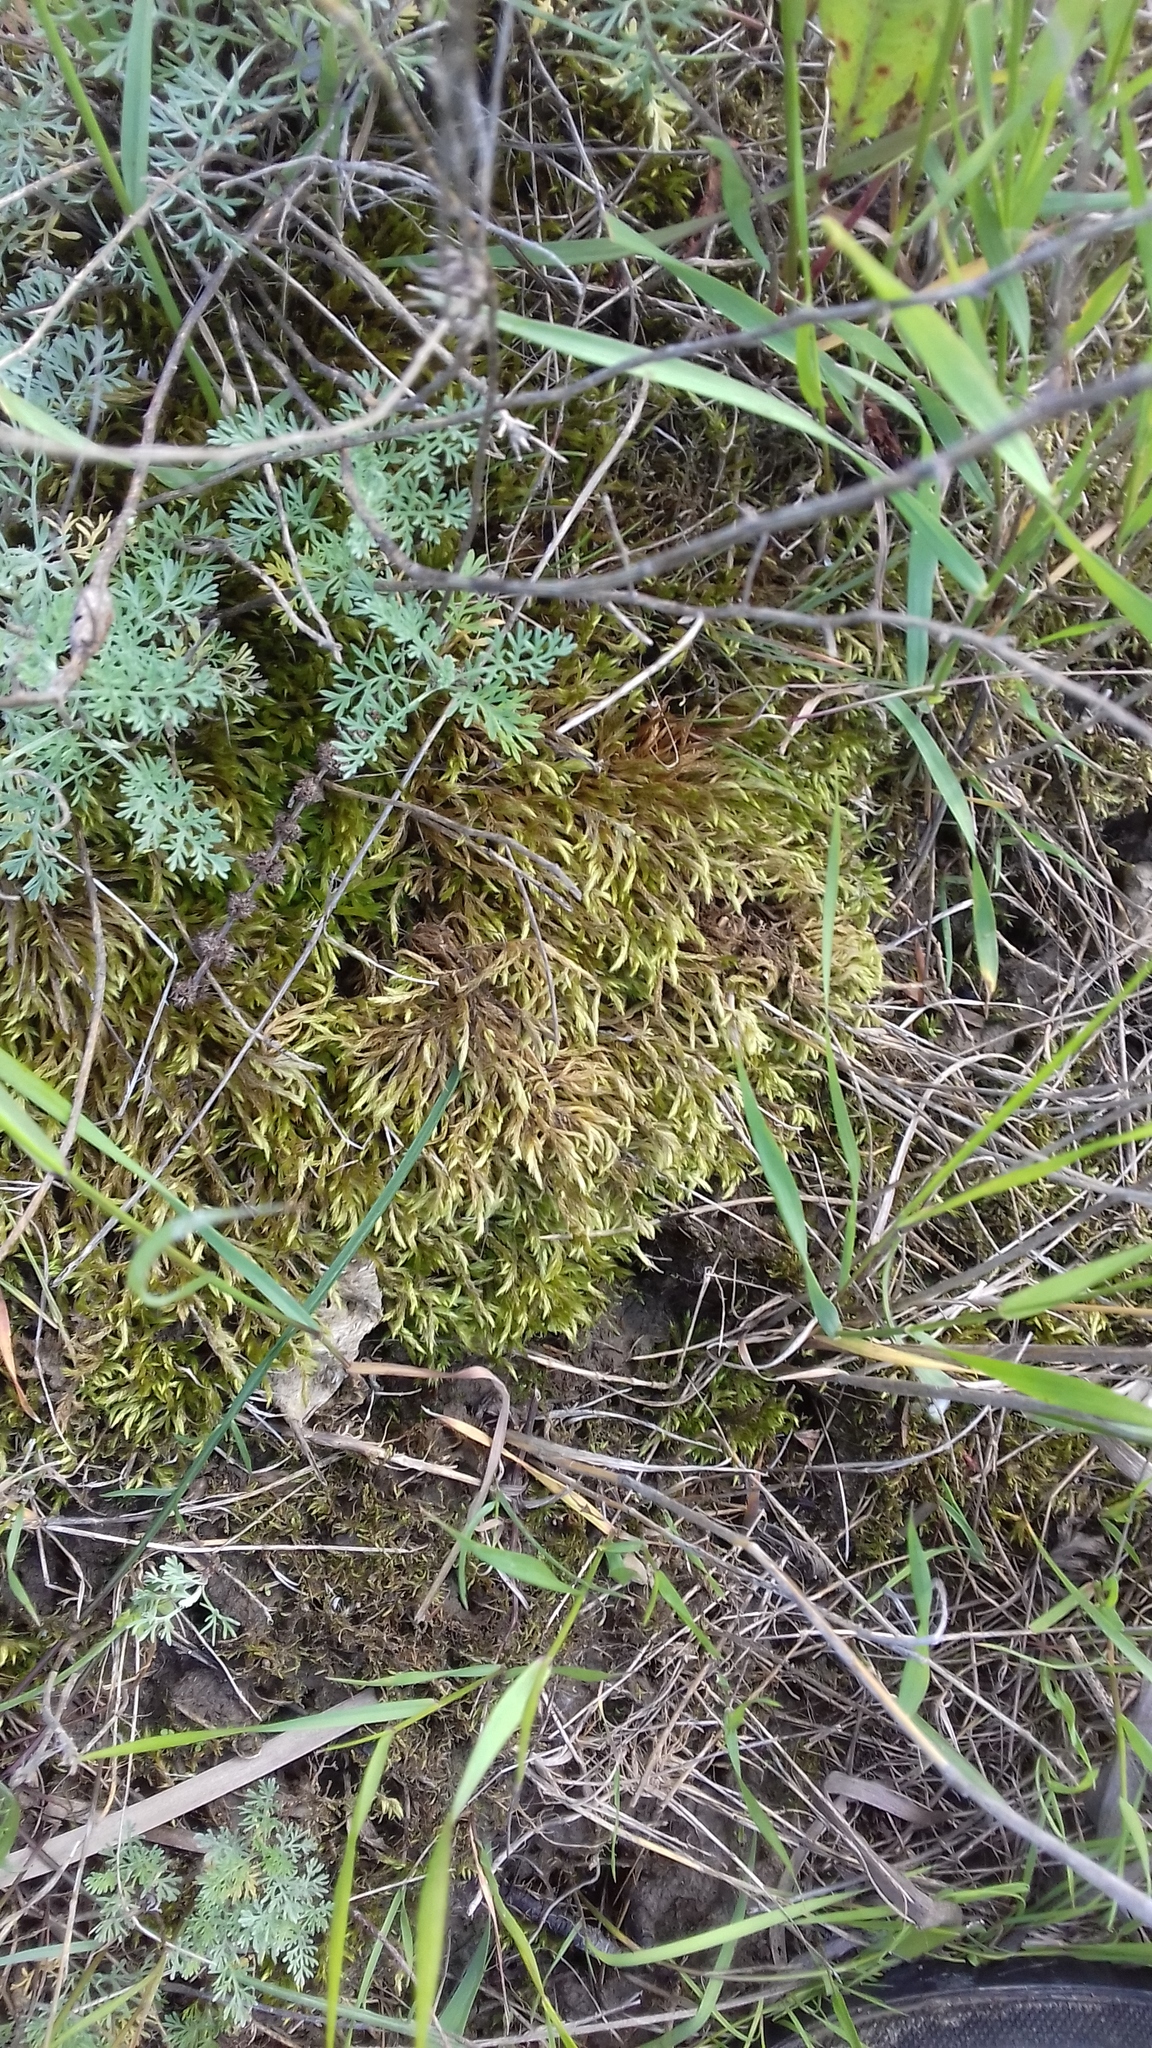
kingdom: Plantae
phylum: Bryophyta
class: Bryopsida
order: Hypnales
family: Brachytheciaceae
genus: Homalothecium
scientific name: Homalothecium lutescens
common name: Yellow feather-moss
